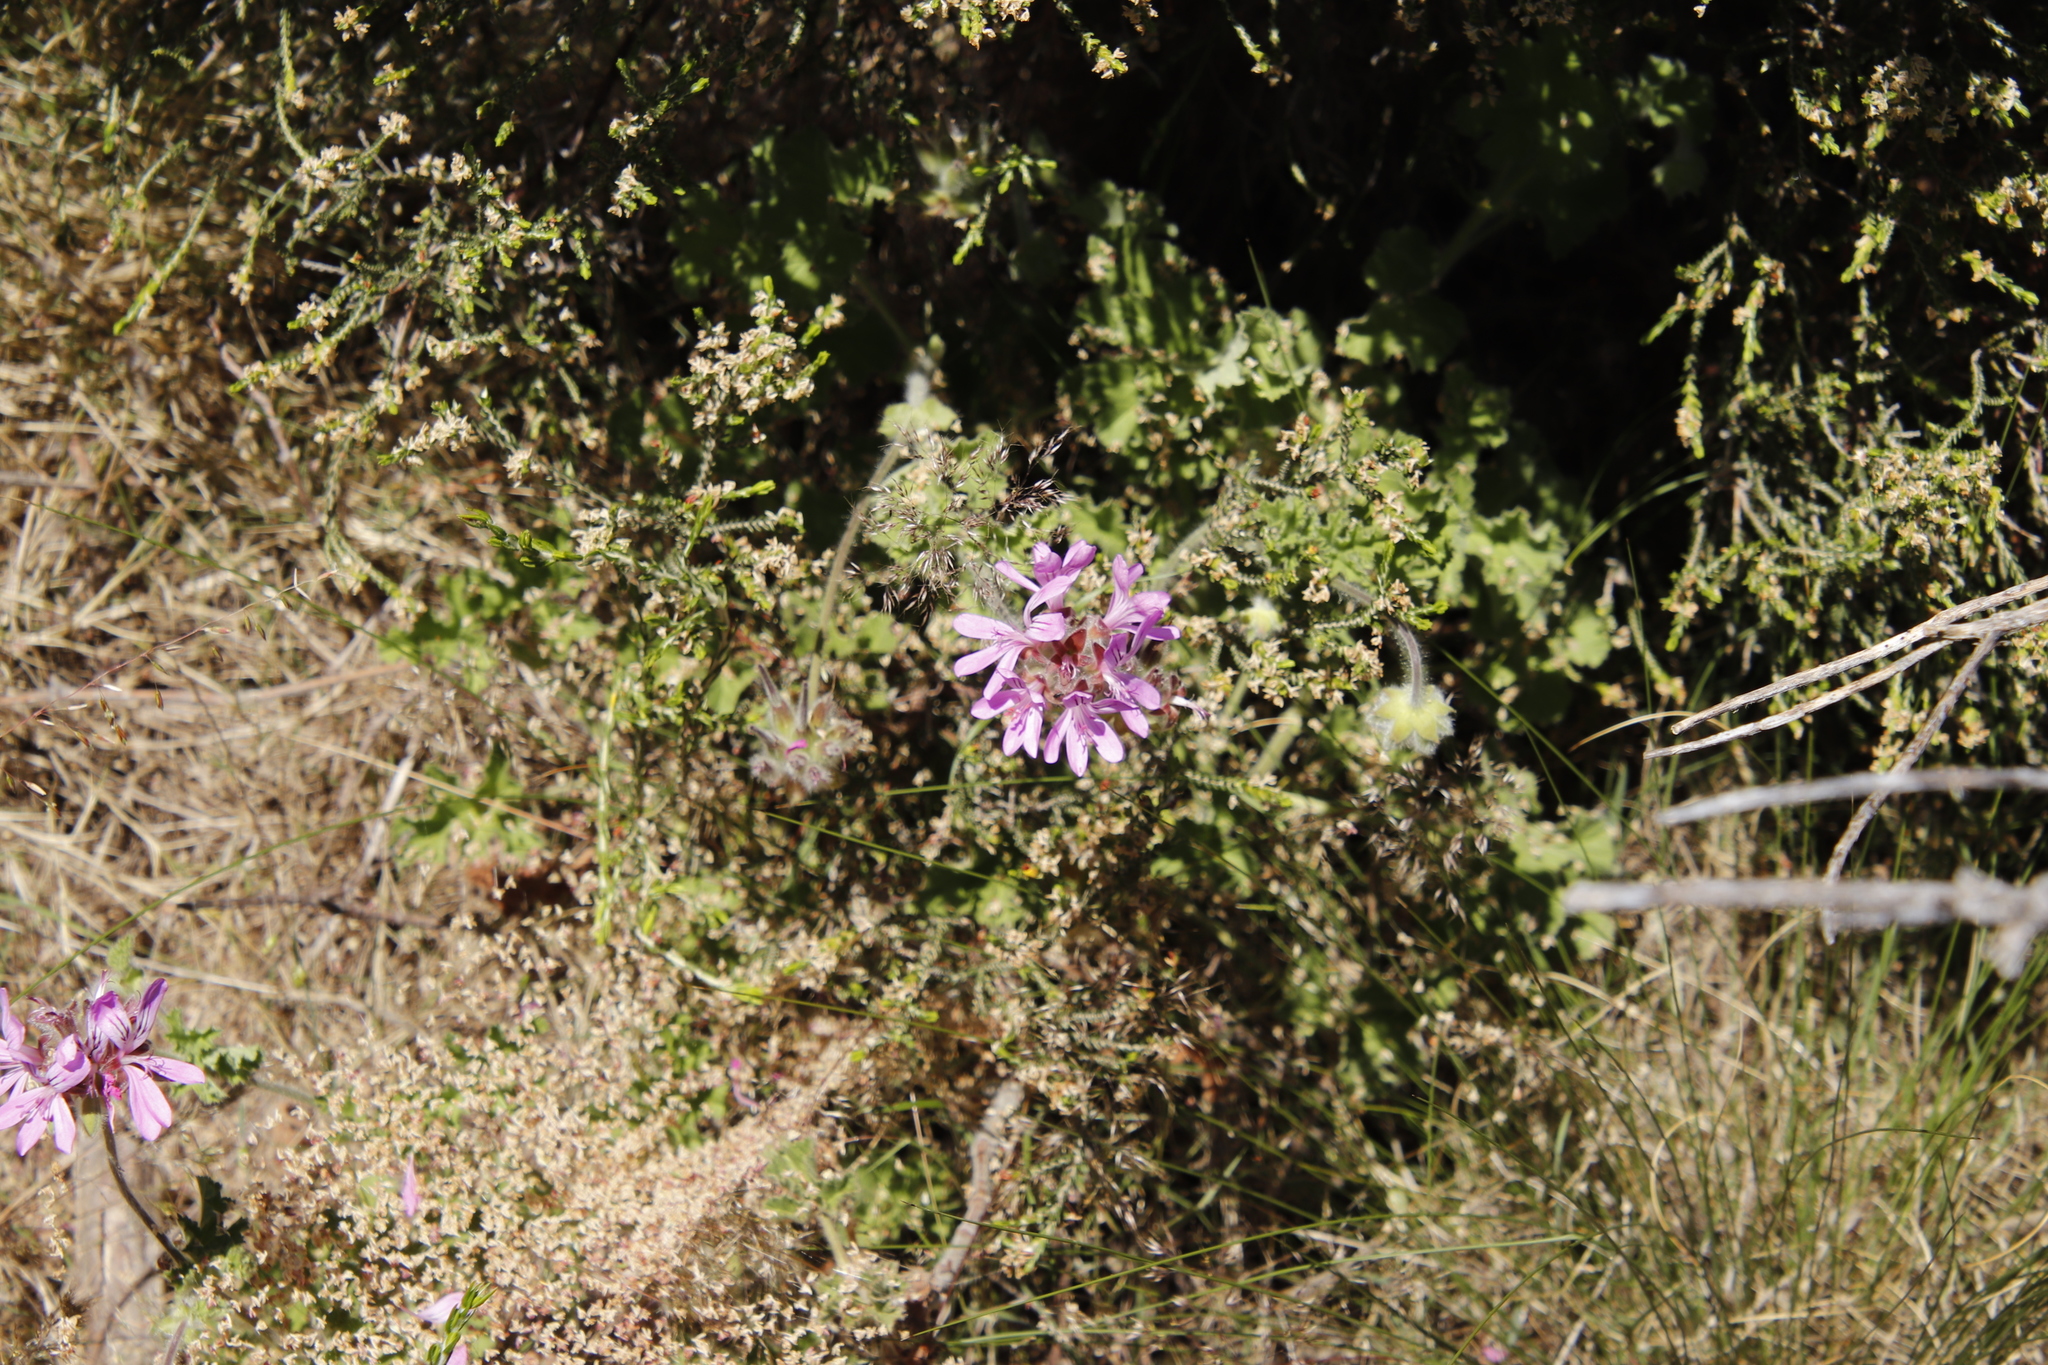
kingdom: Plantae
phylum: Tracheophyta
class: Magnoliopsida
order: Geraniales
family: Geraniaceae
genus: Pelargonium
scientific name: Pelargonium capitatum
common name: Rose scented geranium
